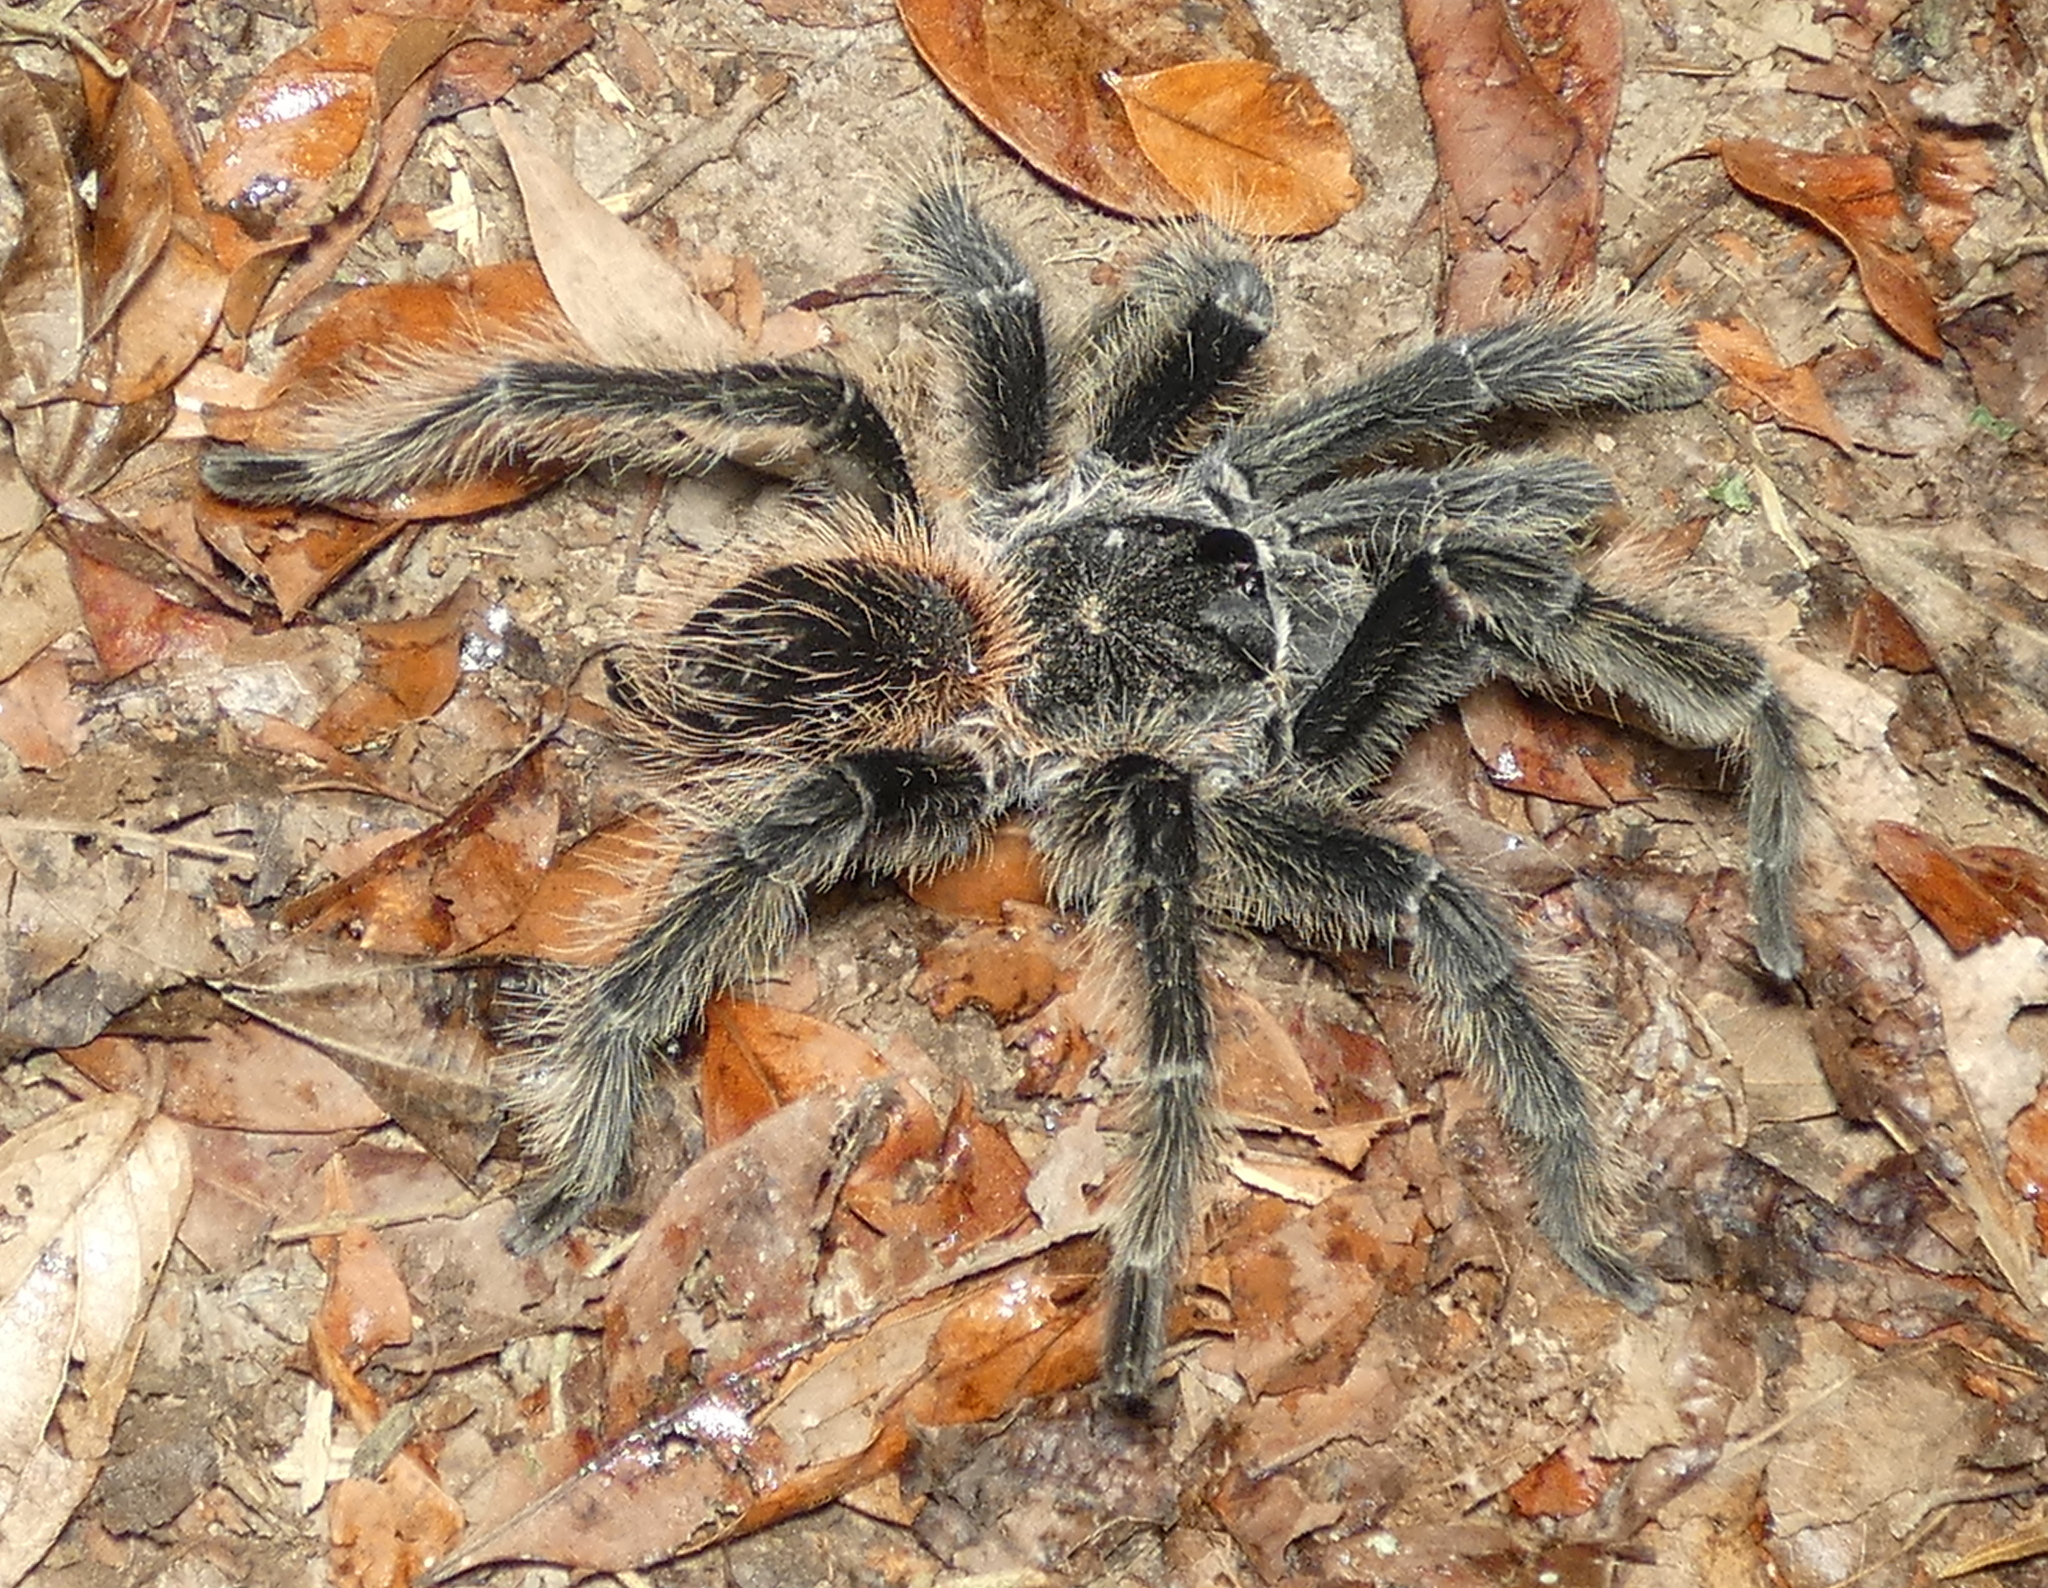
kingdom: Animalia
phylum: Arthropoda
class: Arachnida
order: Araneae
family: Theraphosidae
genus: Lasiodora
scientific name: Lasiodora parahybana
